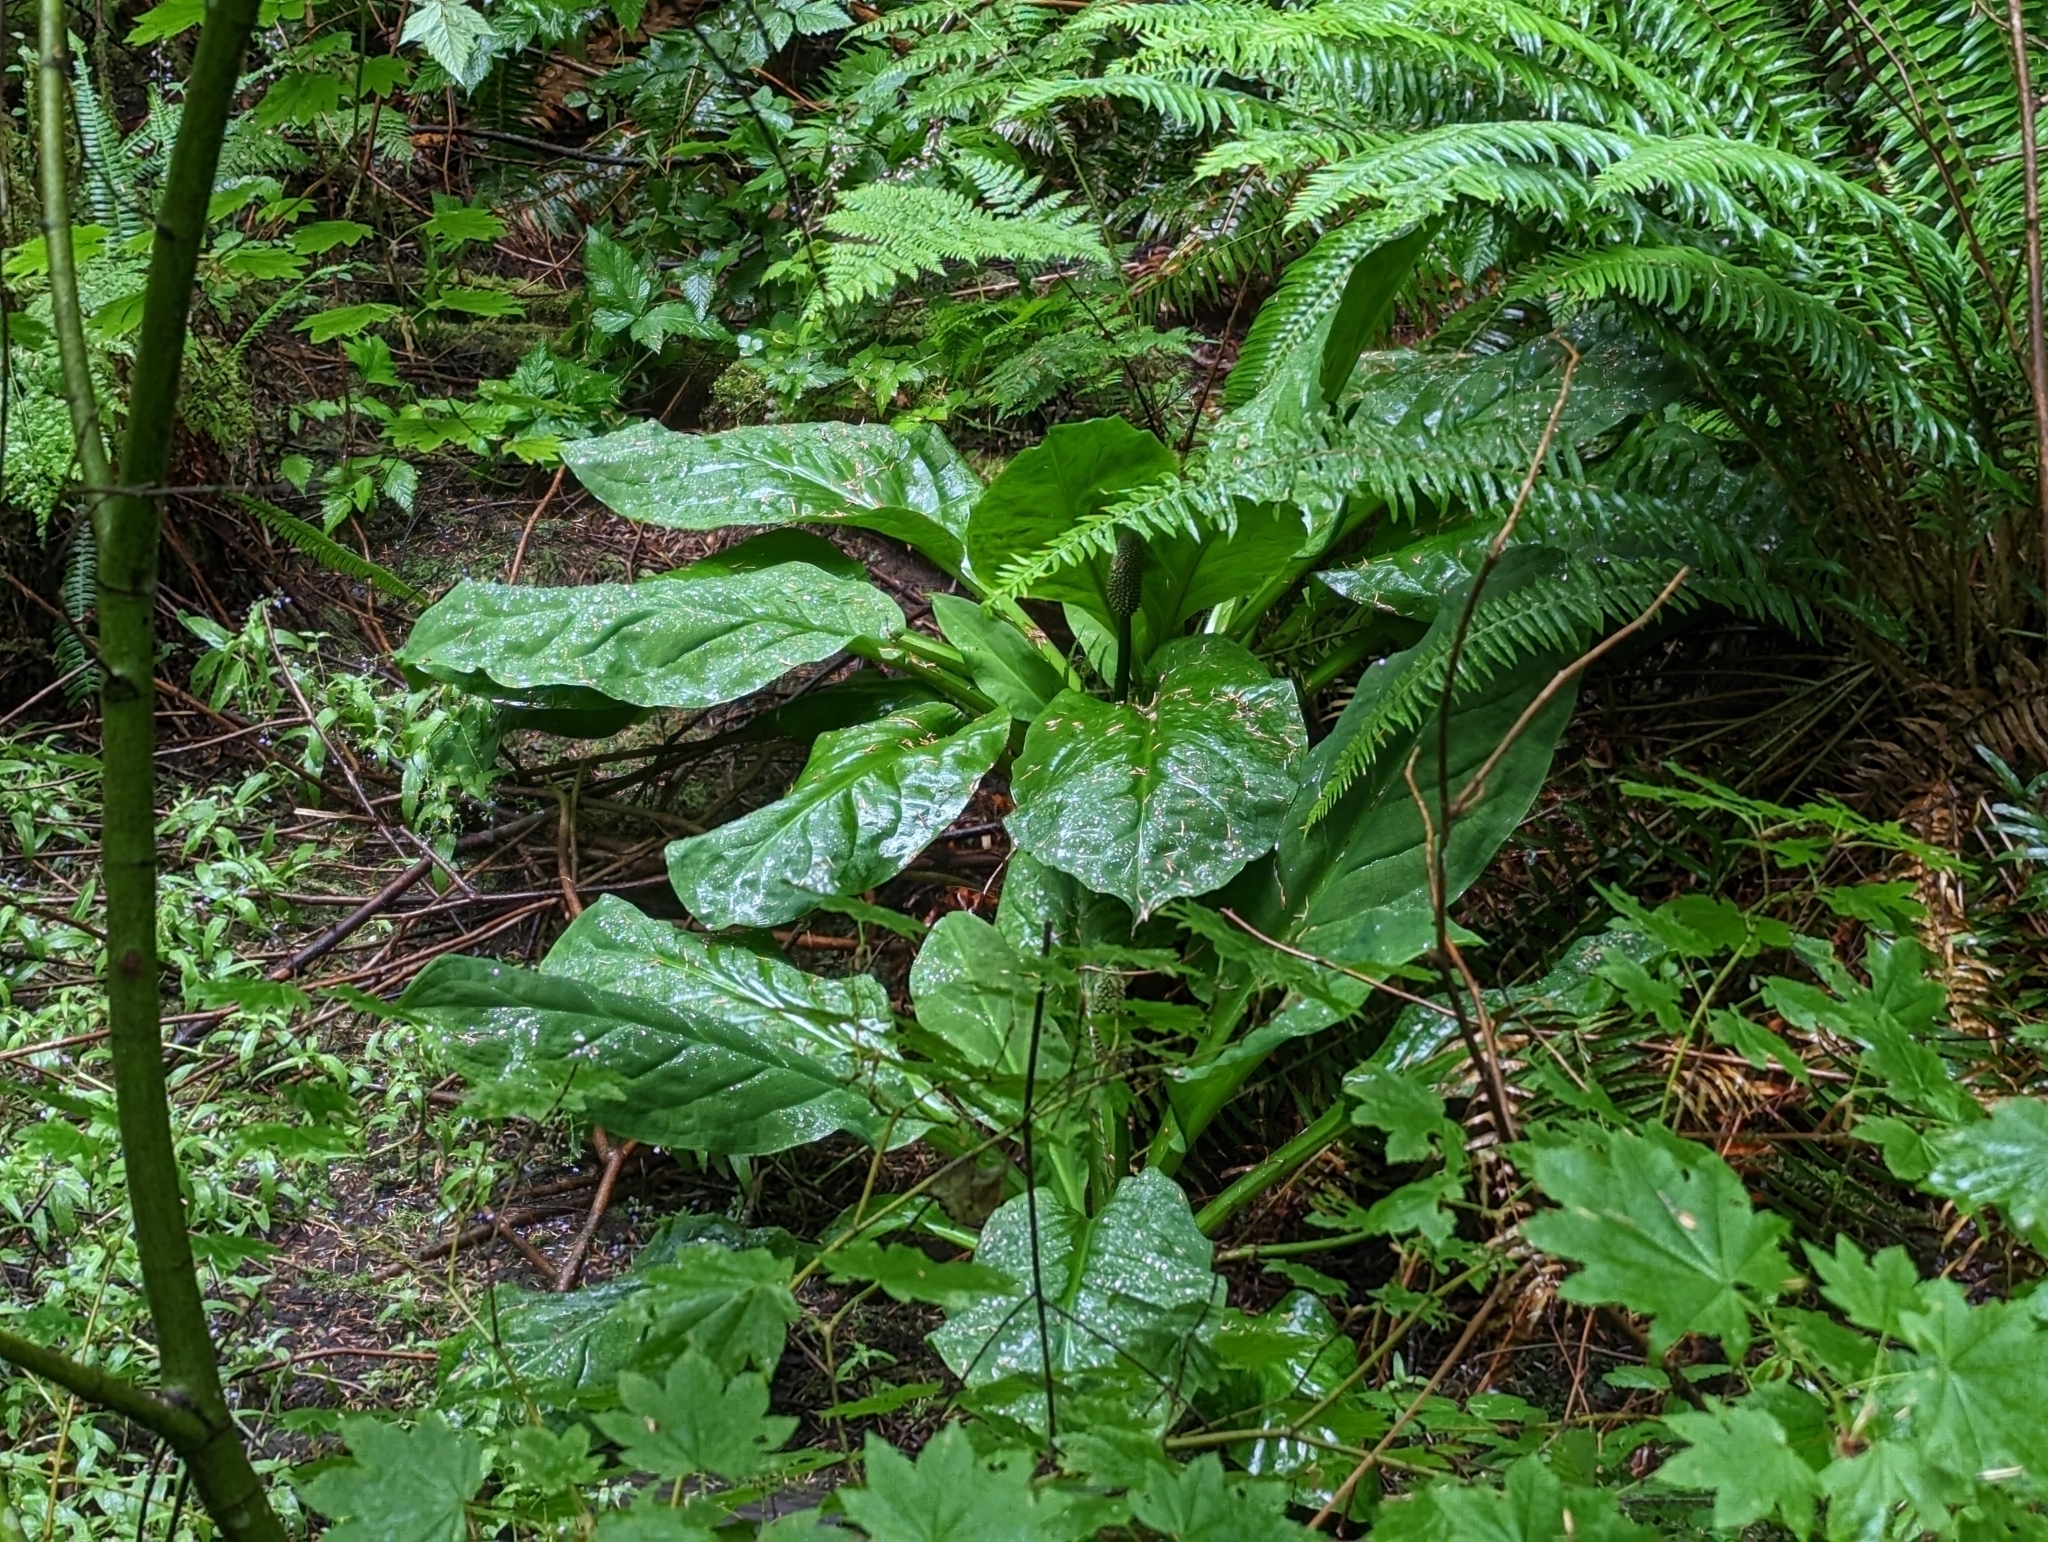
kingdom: Plantae
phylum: Tracheophyta
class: Liliopsida
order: Alismatales
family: Araceae
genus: Lysichiton
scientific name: Lysichiton americanus
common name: American skunk cabbage
